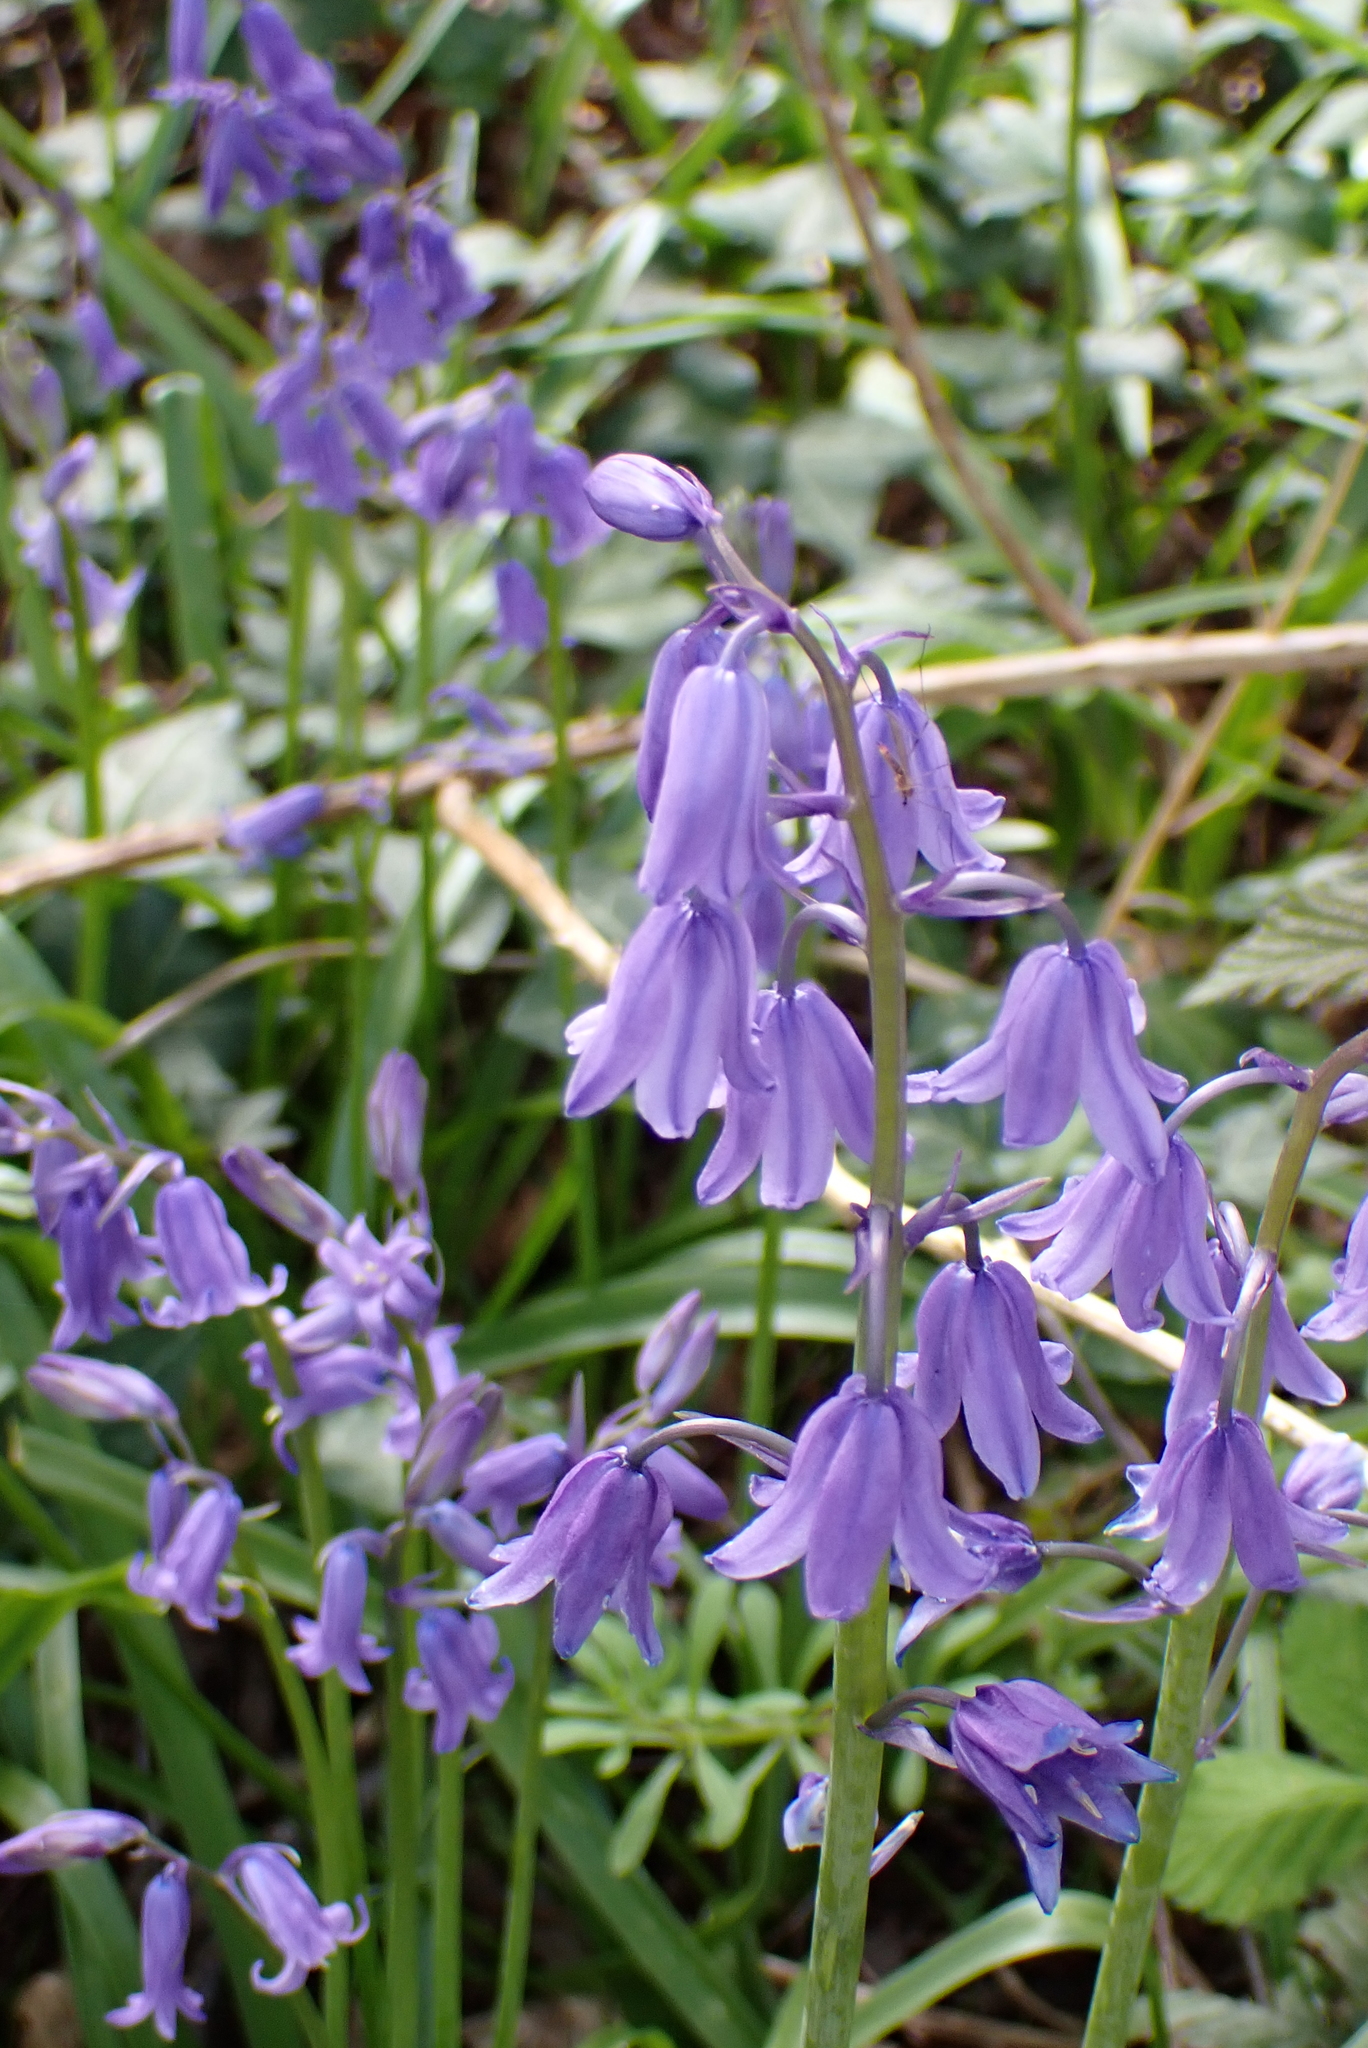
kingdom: Plantae
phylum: Tracheophyta
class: Liliopsida
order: Asparagales
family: Asparagaceae
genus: Hyacinthoides
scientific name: Hyacinthoides massartiana
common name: Hyacinthoides
